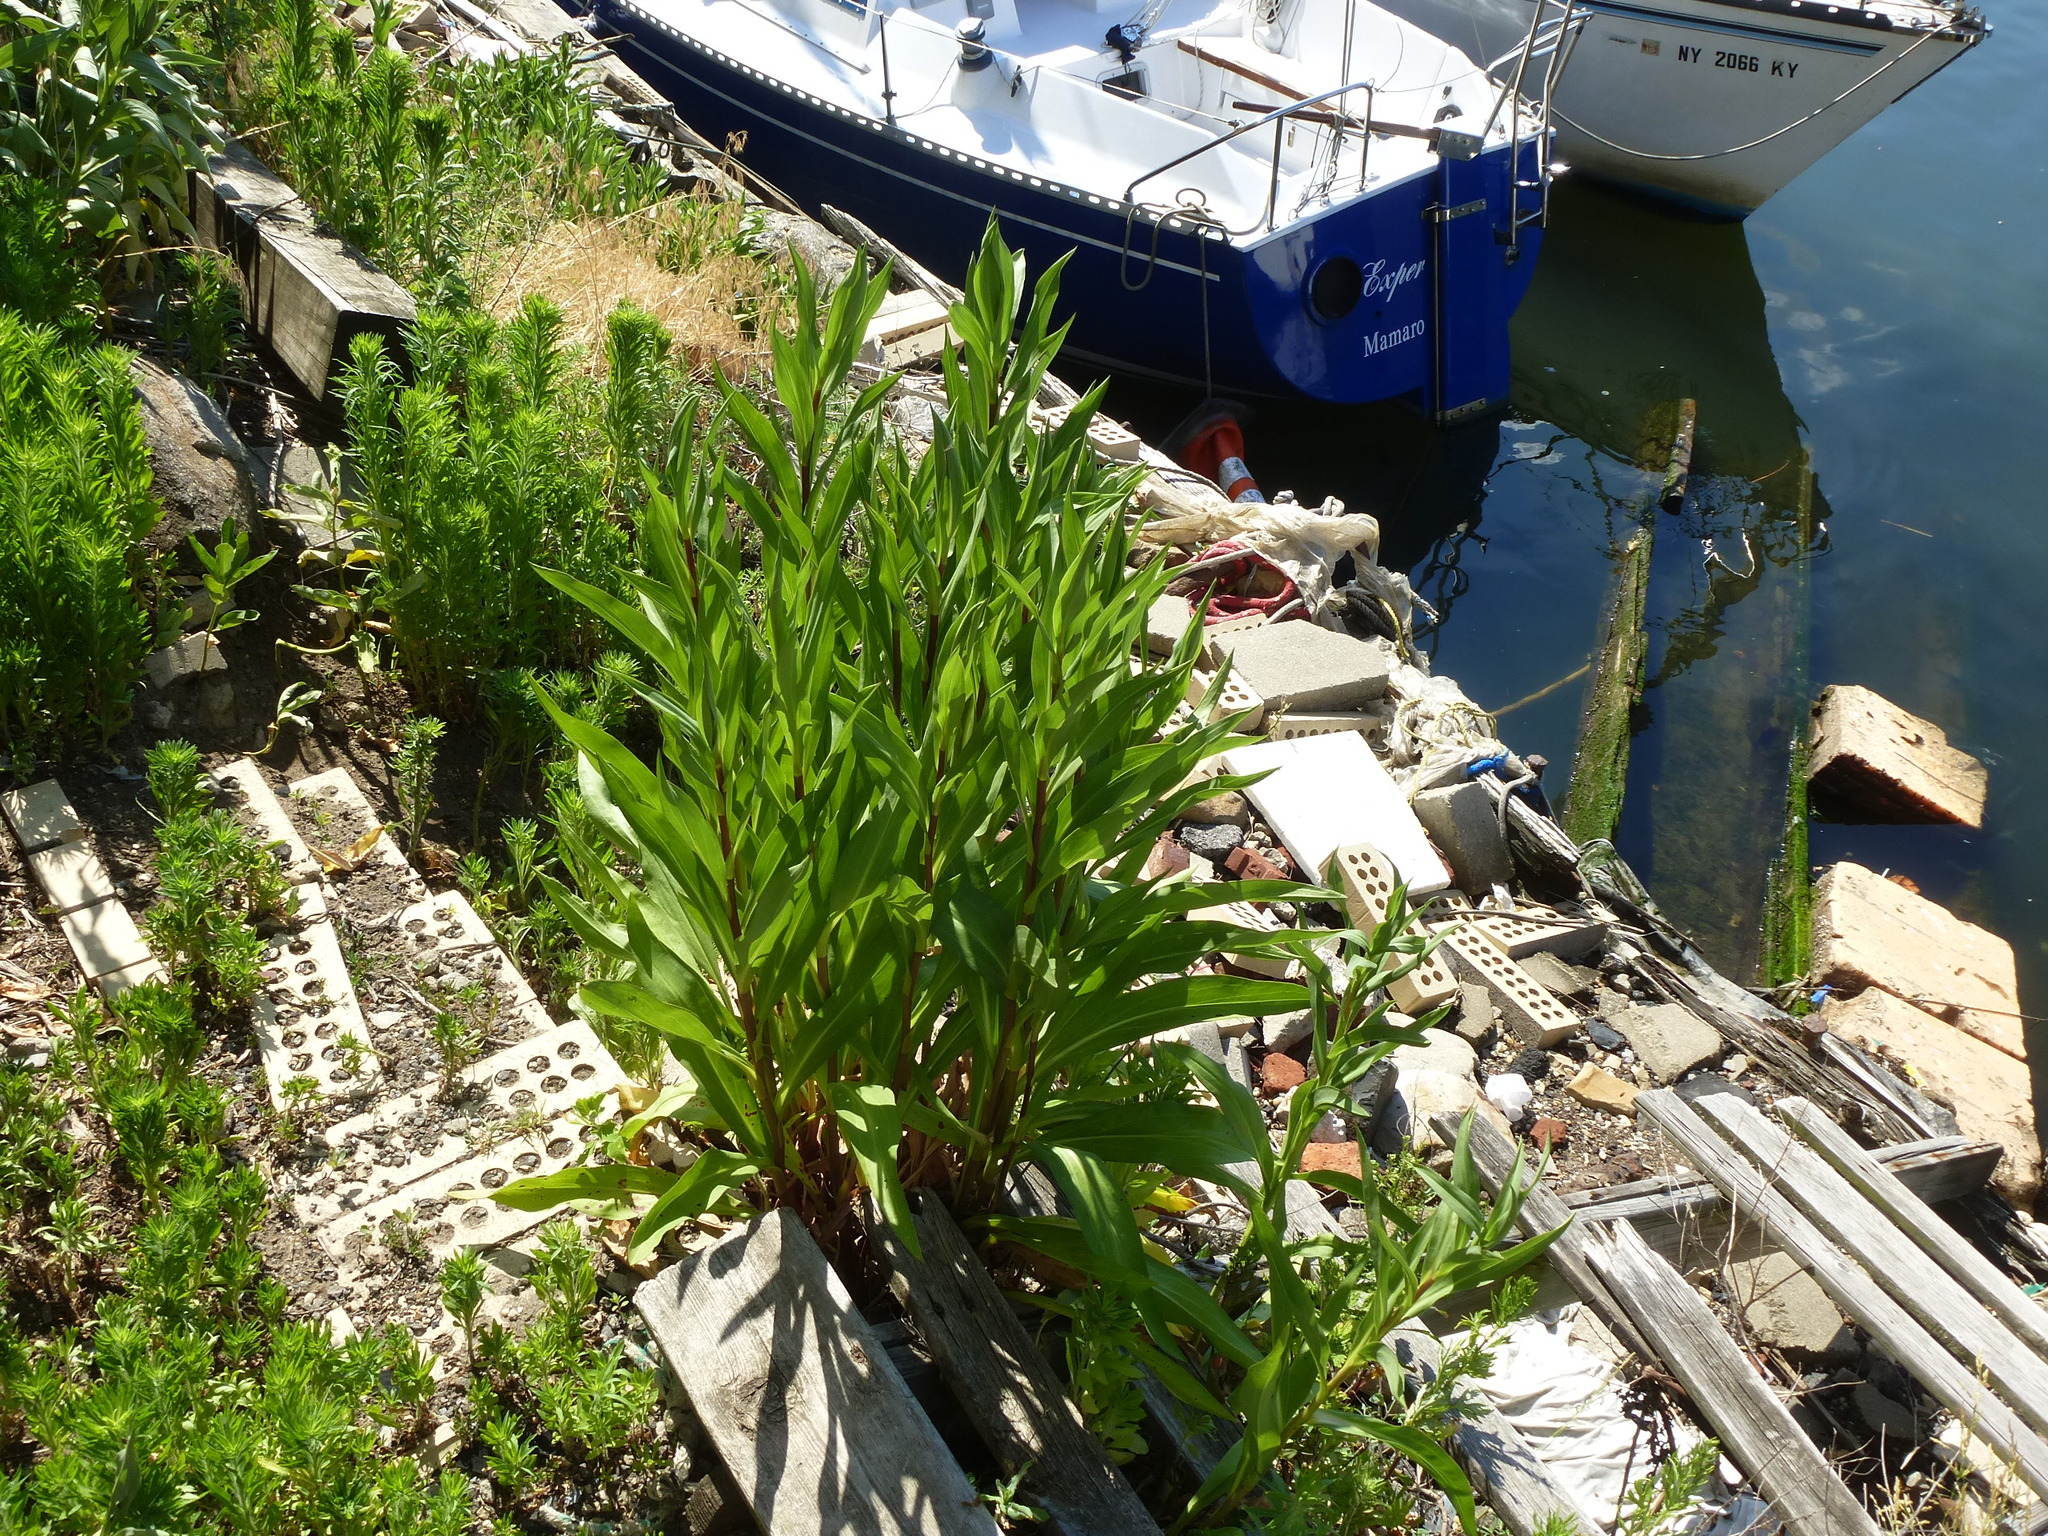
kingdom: Plantae
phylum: Tracheophyta
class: Magnoliopsida
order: Asterales
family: Asteraceae
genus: Solidago
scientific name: Solidago sempervirens
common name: Salt-marsh goldenrod
